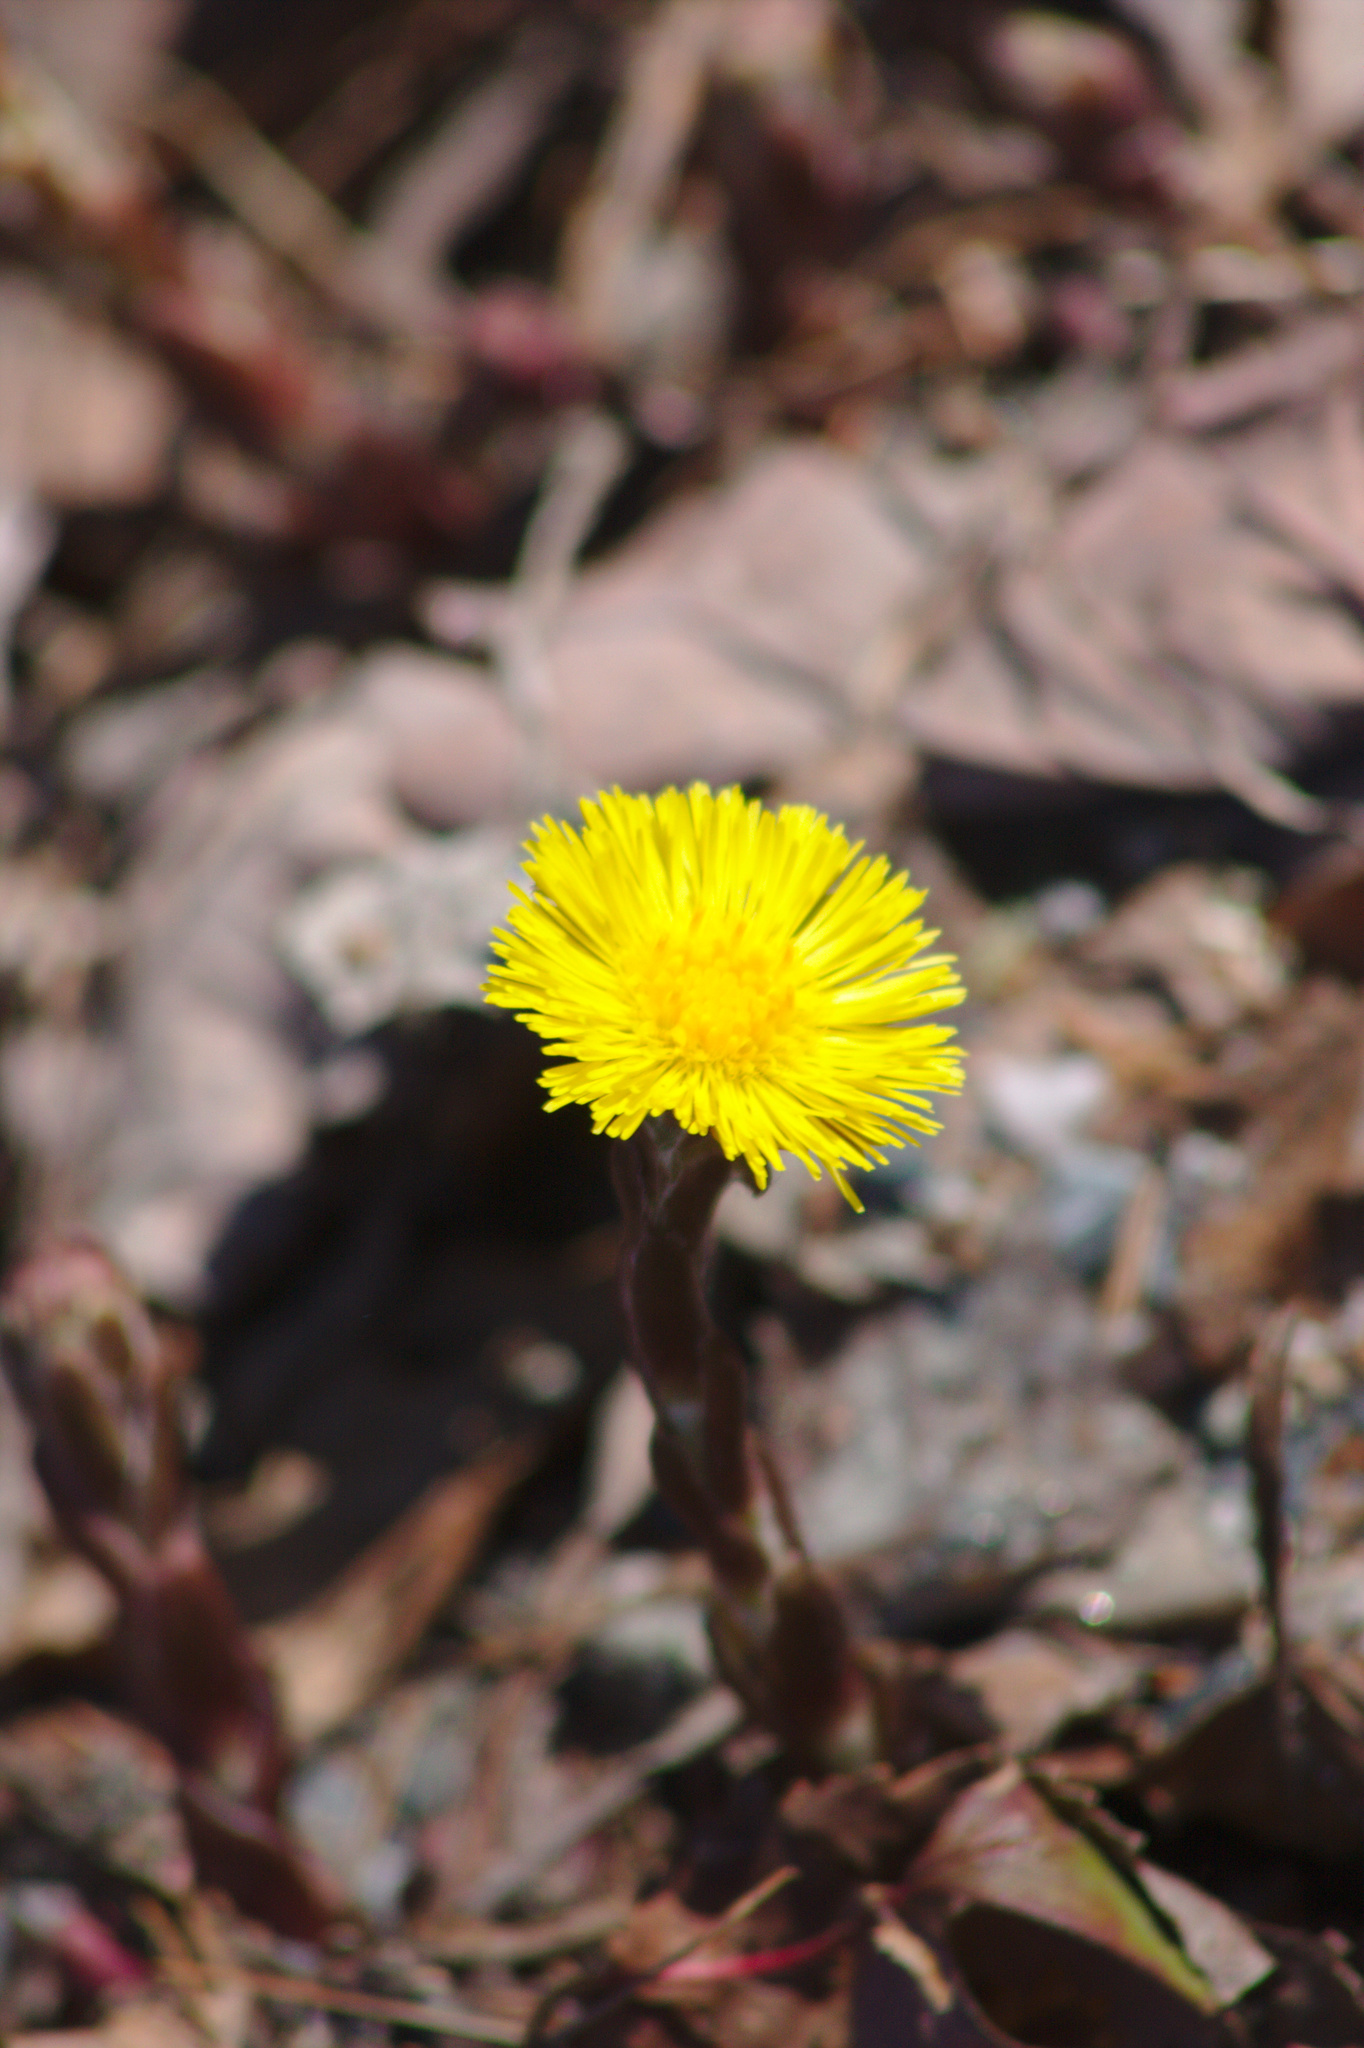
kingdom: Plantae
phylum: Tracheophyta
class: Magnoliopsida
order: Asterales
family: Asteraceae
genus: Tussilago
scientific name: Tussilago farfara
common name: Coltsfoot
